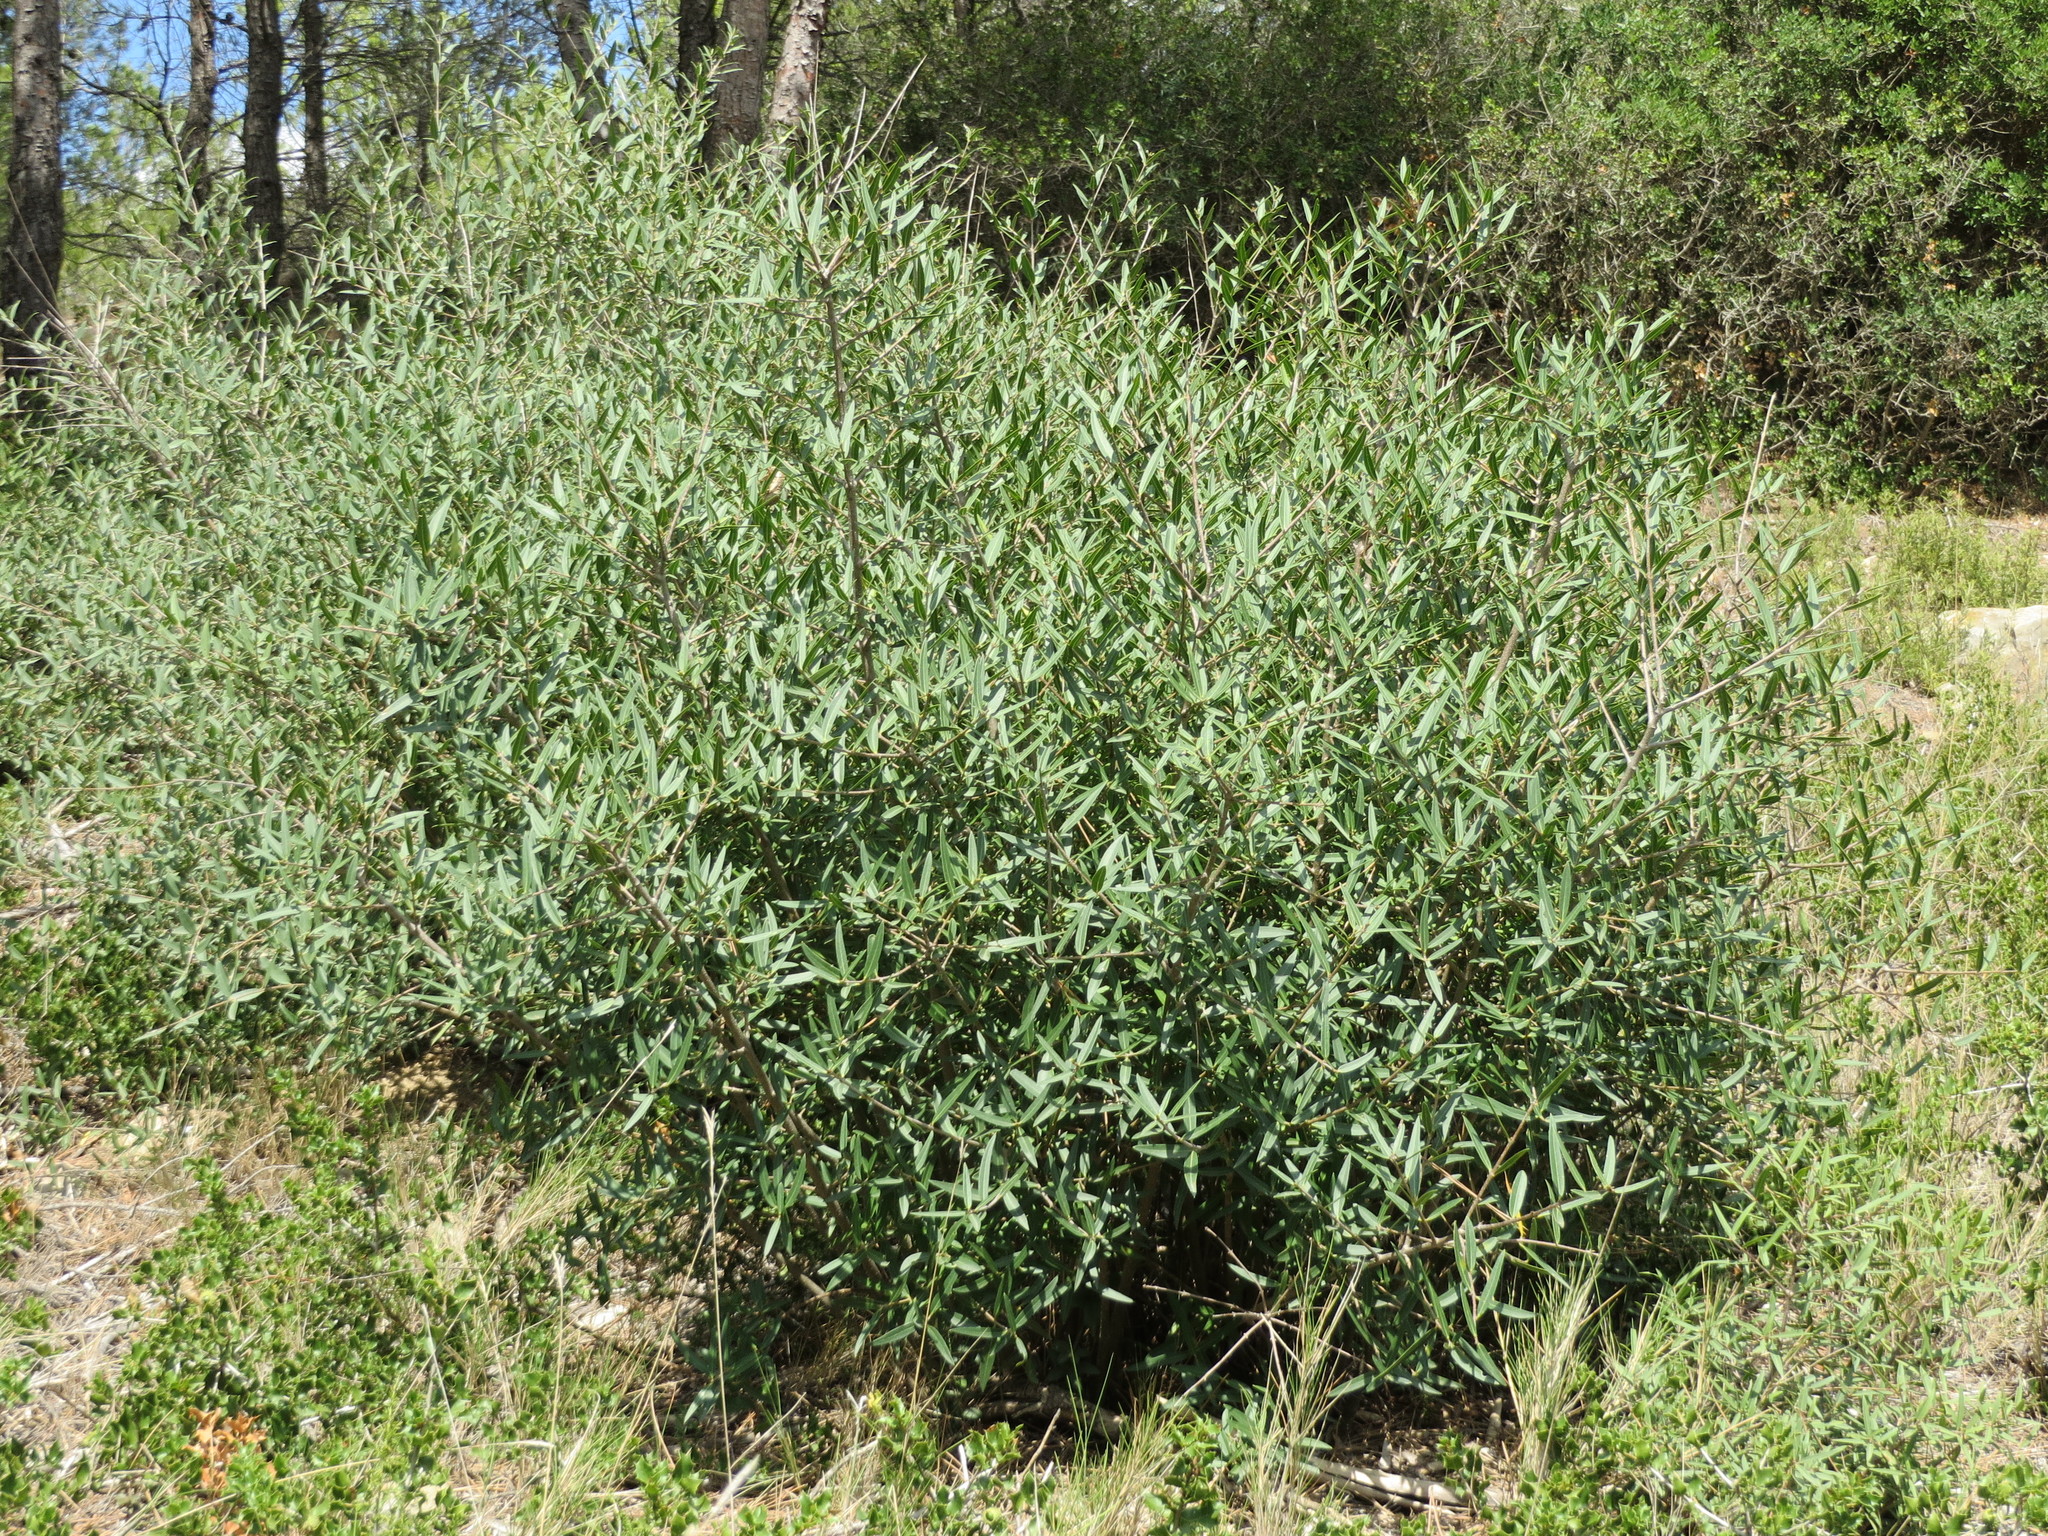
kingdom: Plantae
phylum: Tracheophyta
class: Magnoliopsida
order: Lamiales
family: Oleaceae
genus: Phillyrea
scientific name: Phillyrea angustifolia
